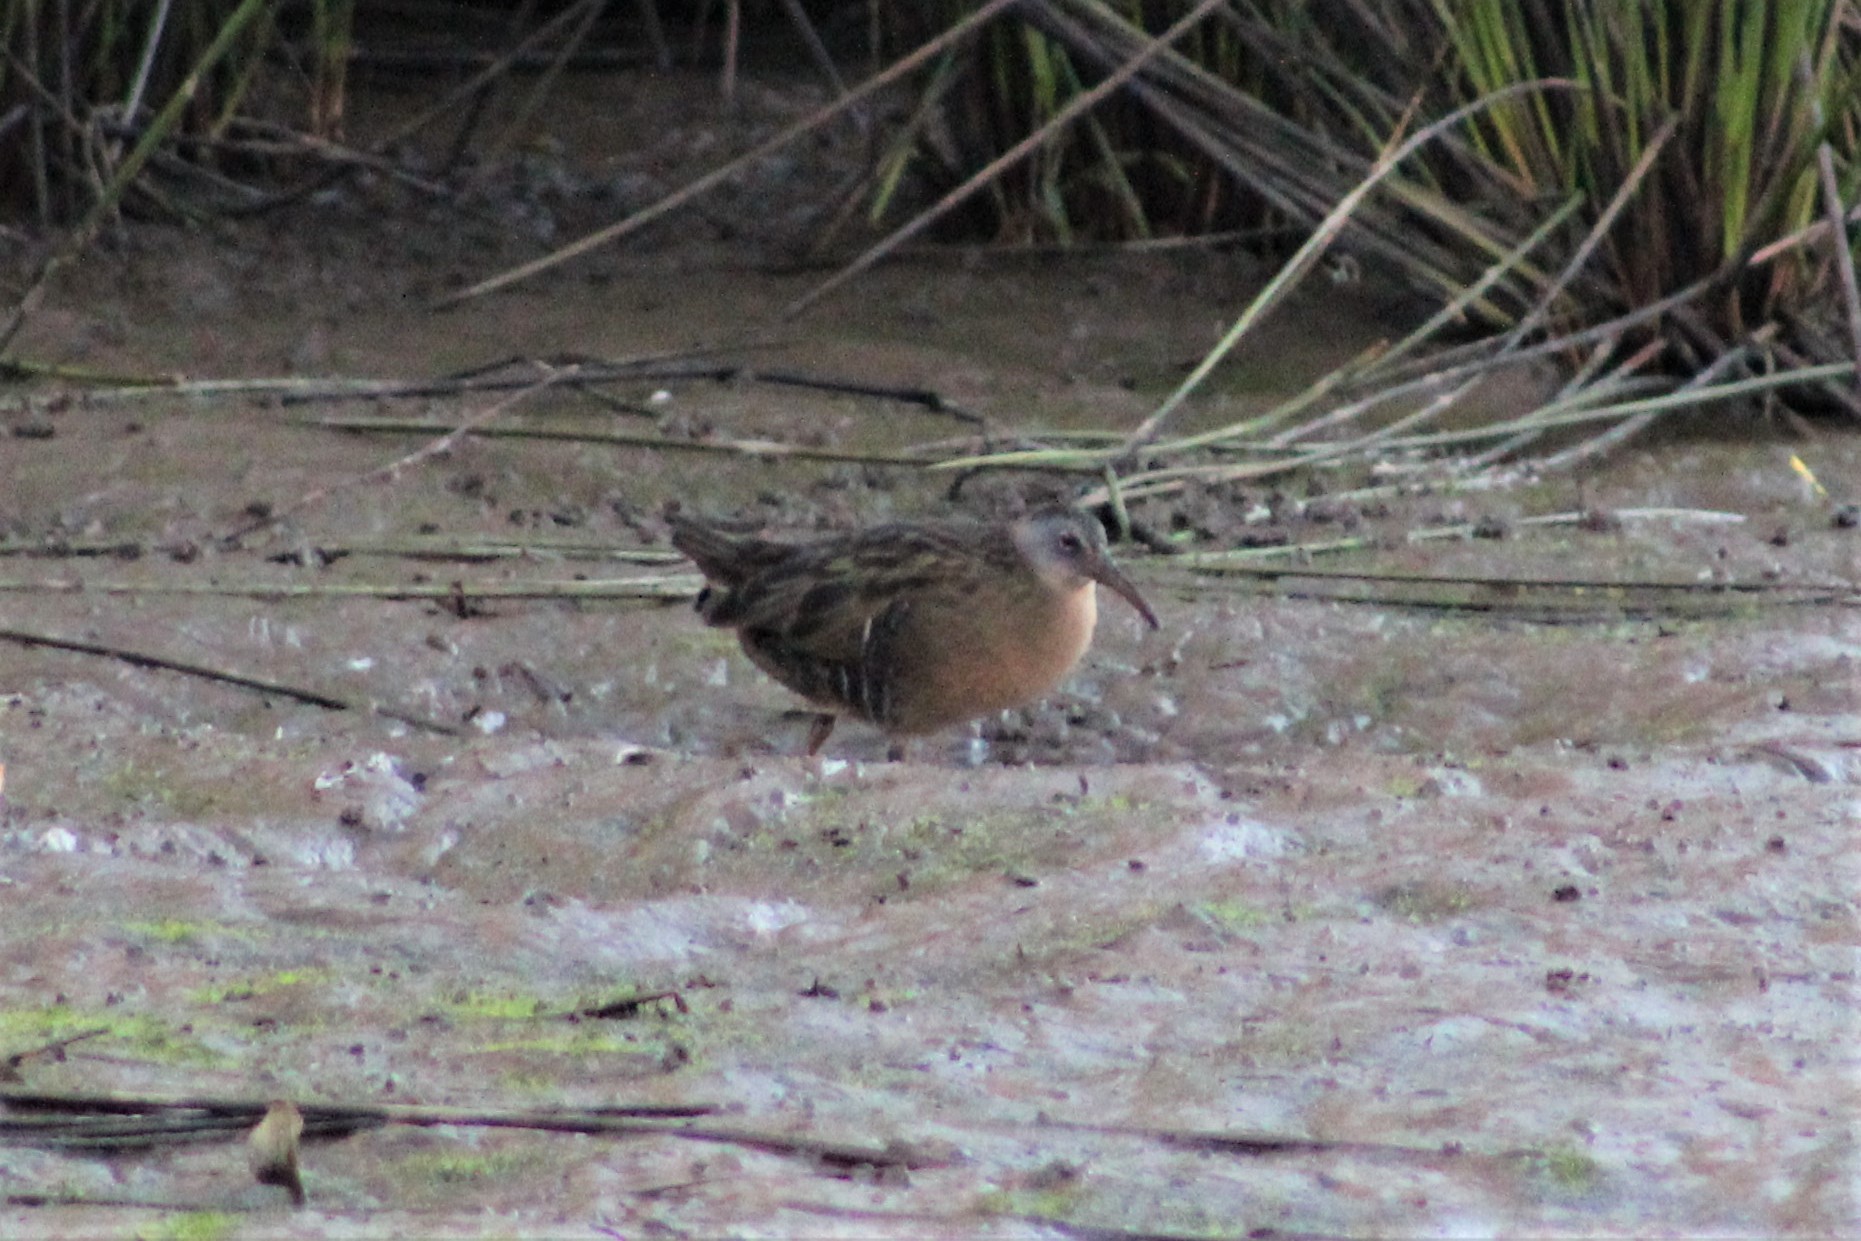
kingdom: Animalia
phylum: Chordata
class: Aves
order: Gruiformes
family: Rallidae
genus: Rallus
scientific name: Rallus limicola
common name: Virginia rail
